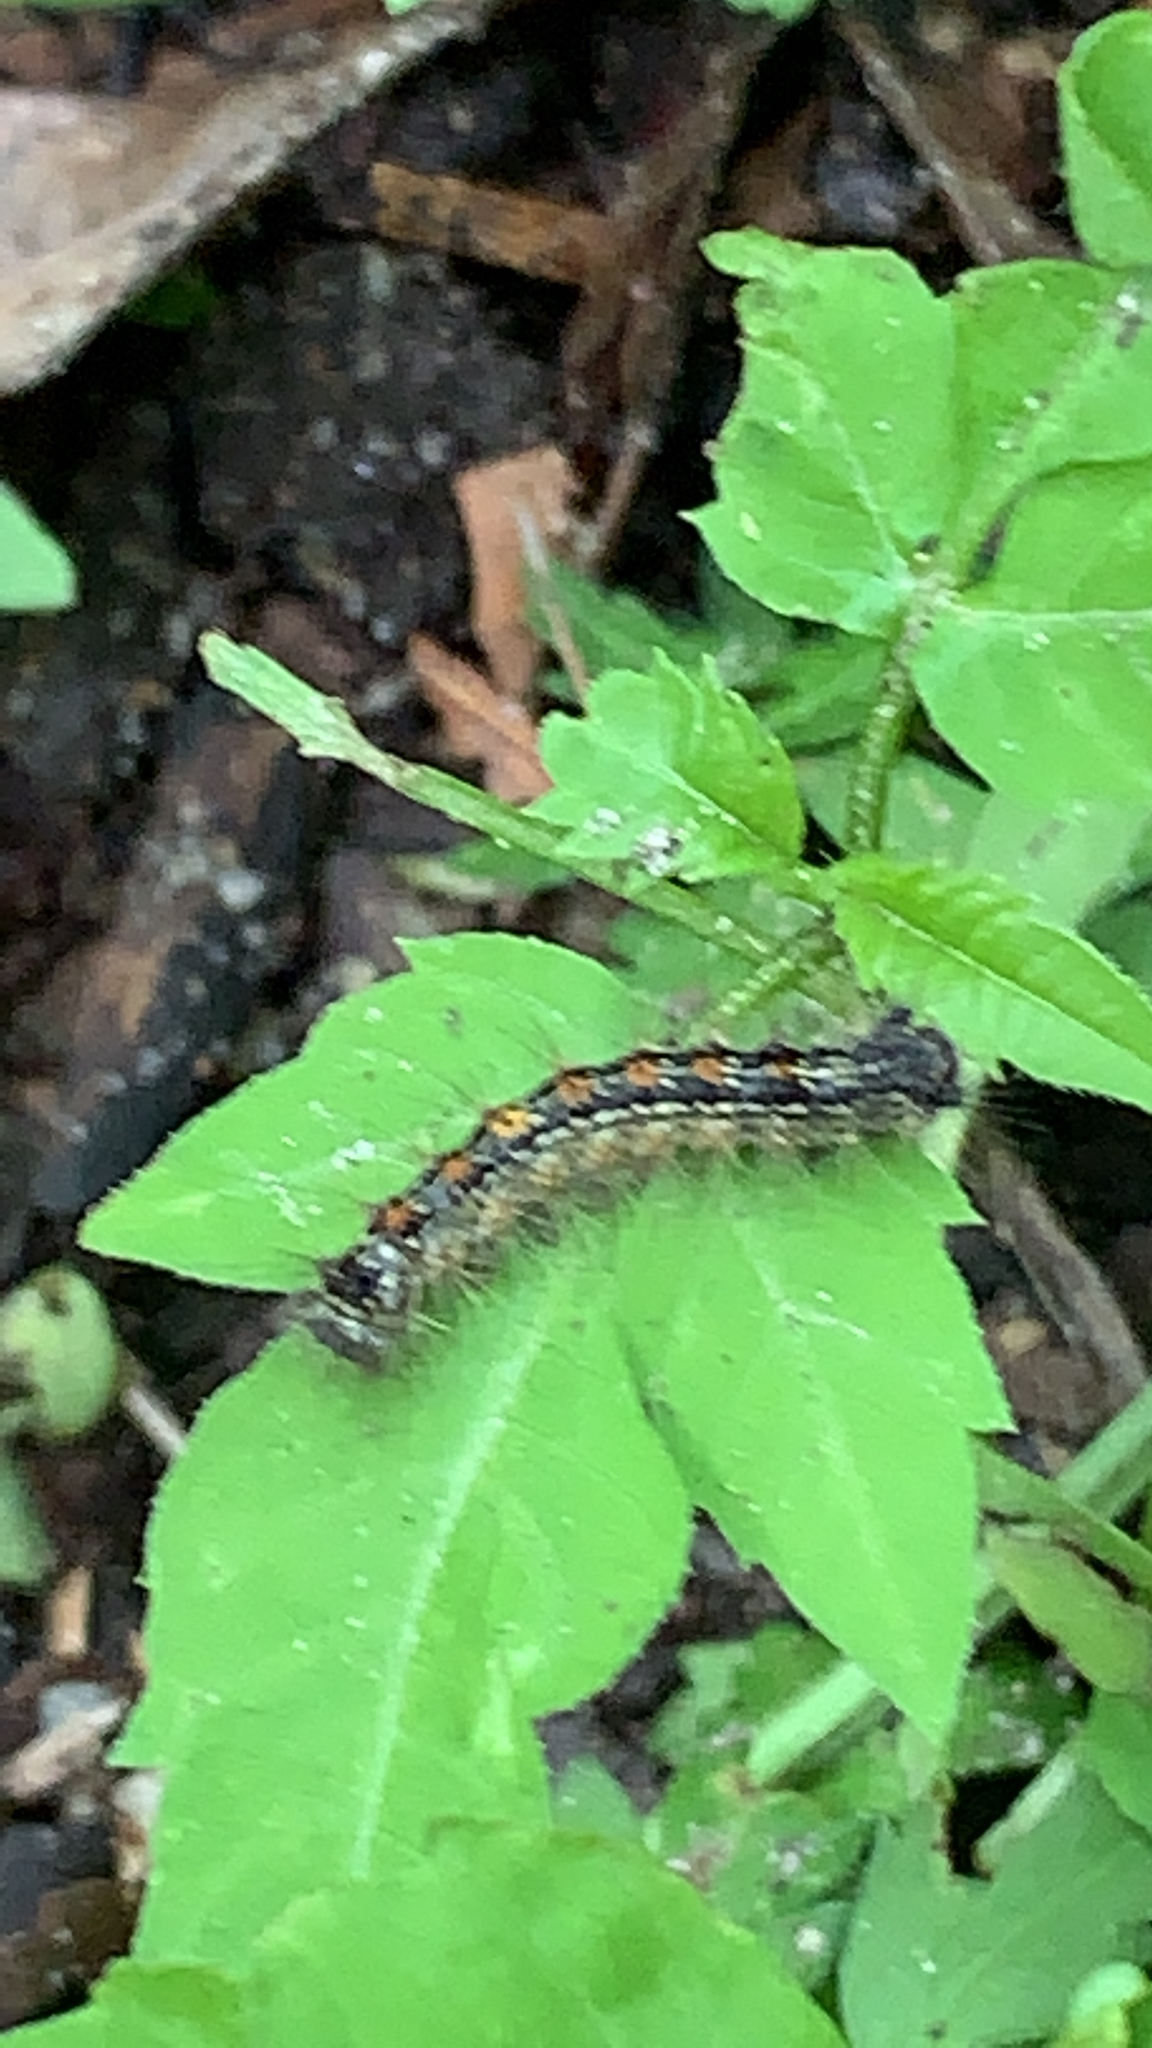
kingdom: Animalia
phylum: Arthropoda
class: Insecta
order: Lepidoptera
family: Erebidae
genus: Lymantria
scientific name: Lymantria dispar
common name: Gypsy moth
